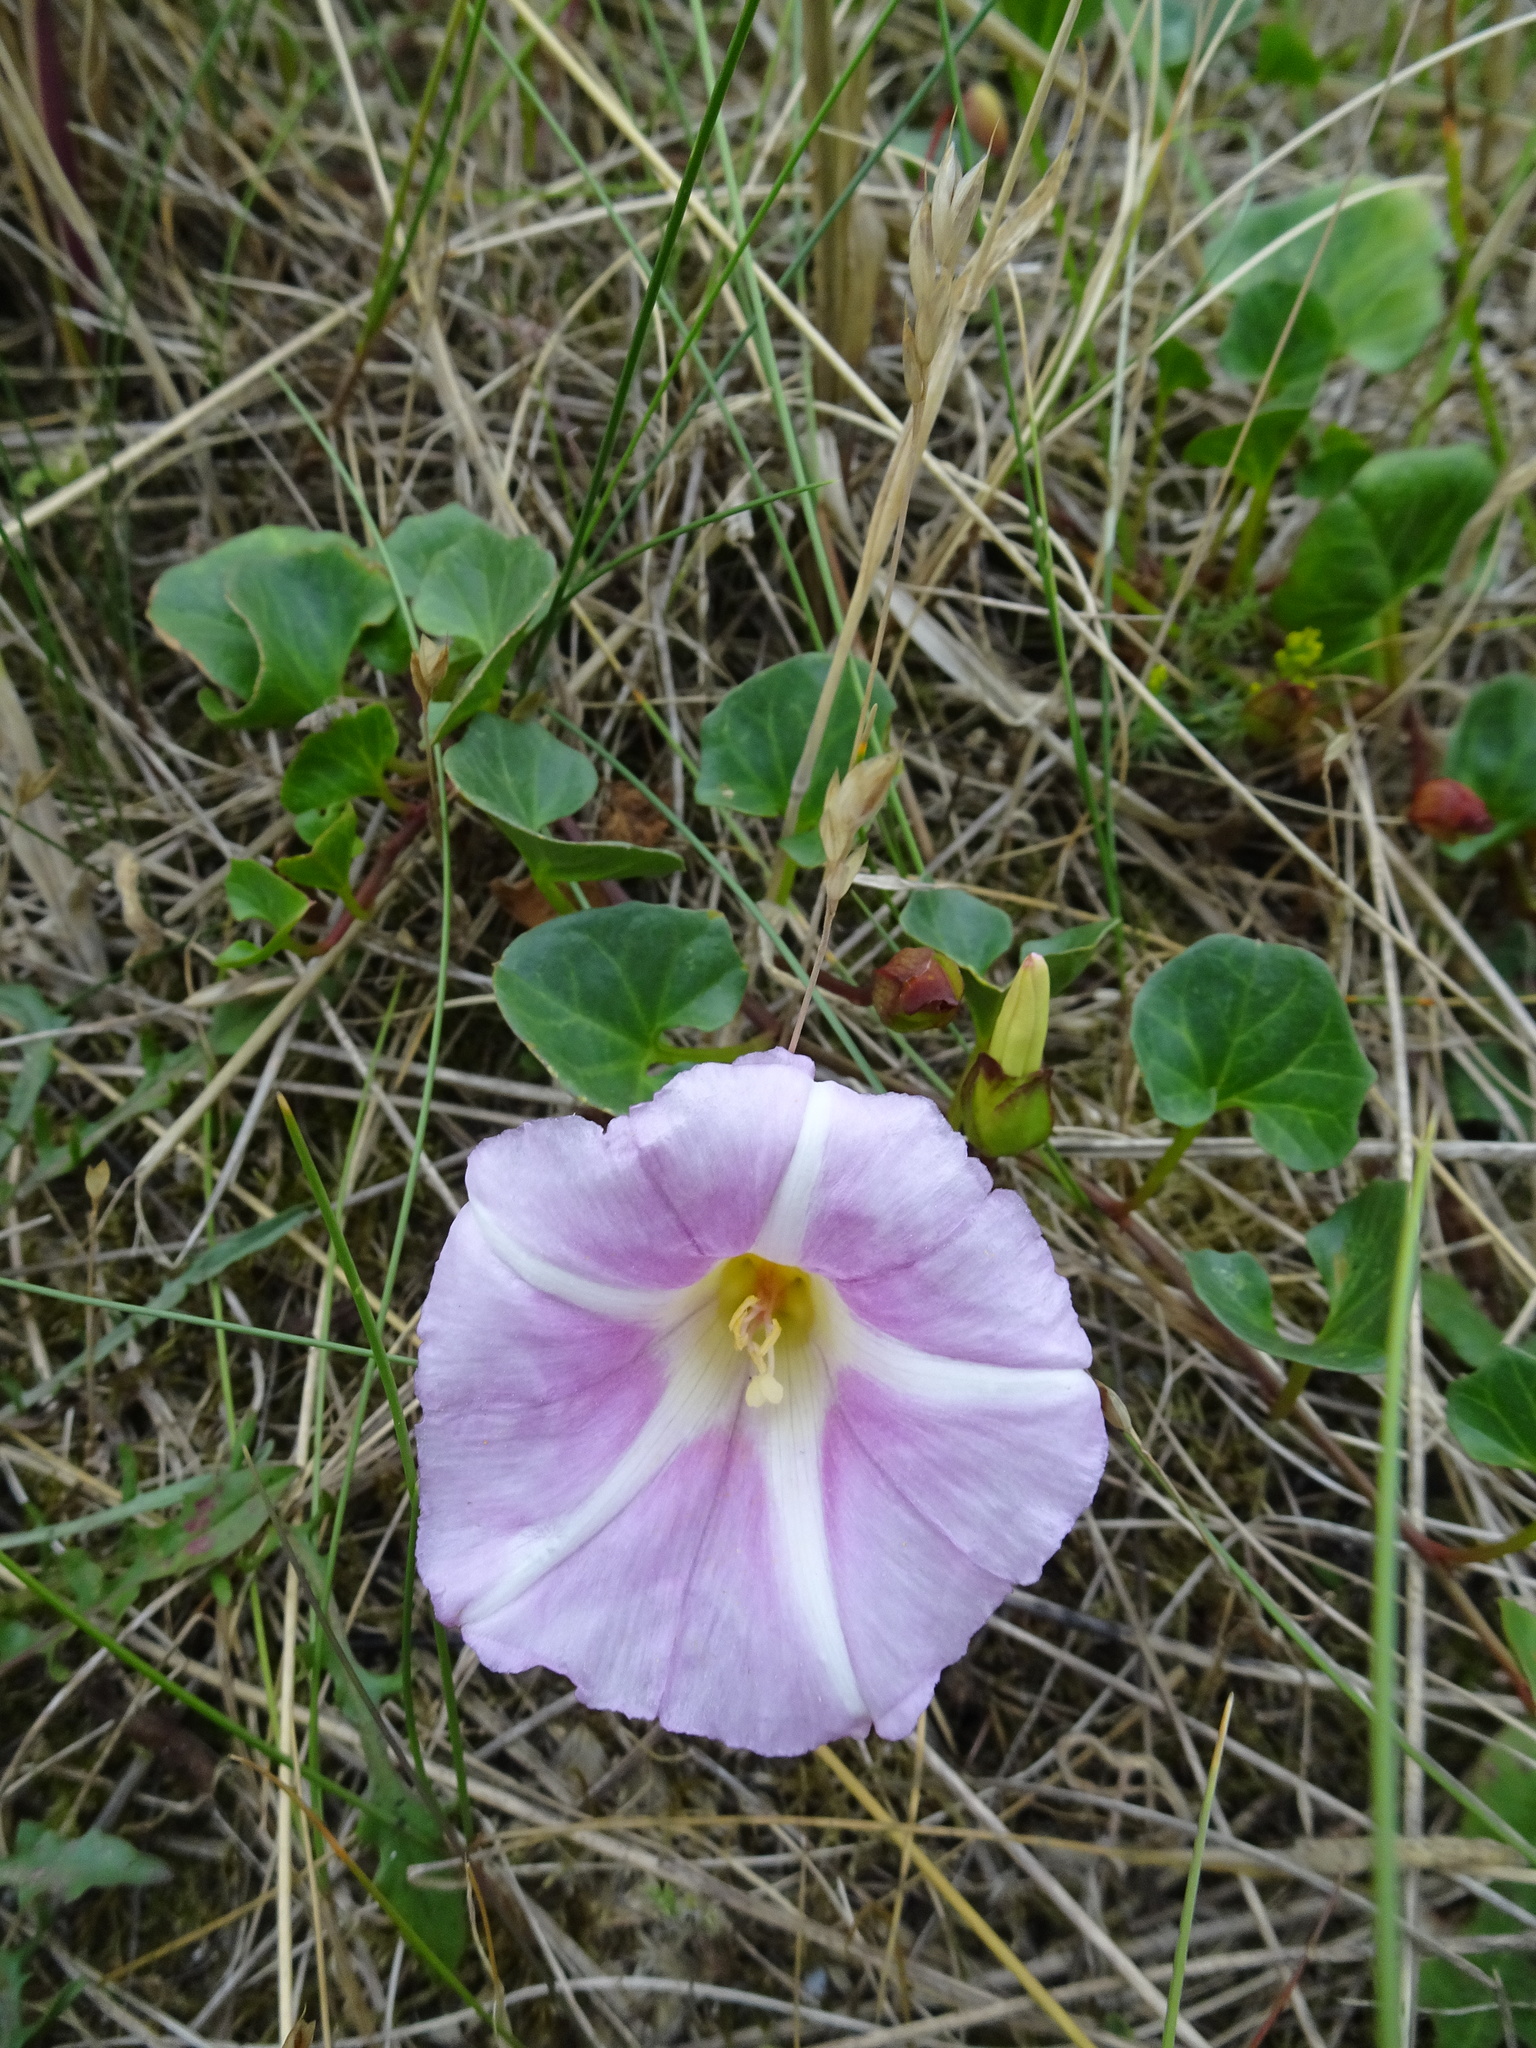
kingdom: Plantae
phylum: Tracheophyta
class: Magnoliopsida
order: Solanales
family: Convolvulaceae
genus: Calystegia
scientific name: Calystegia soldanella
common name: Sea bindweed
